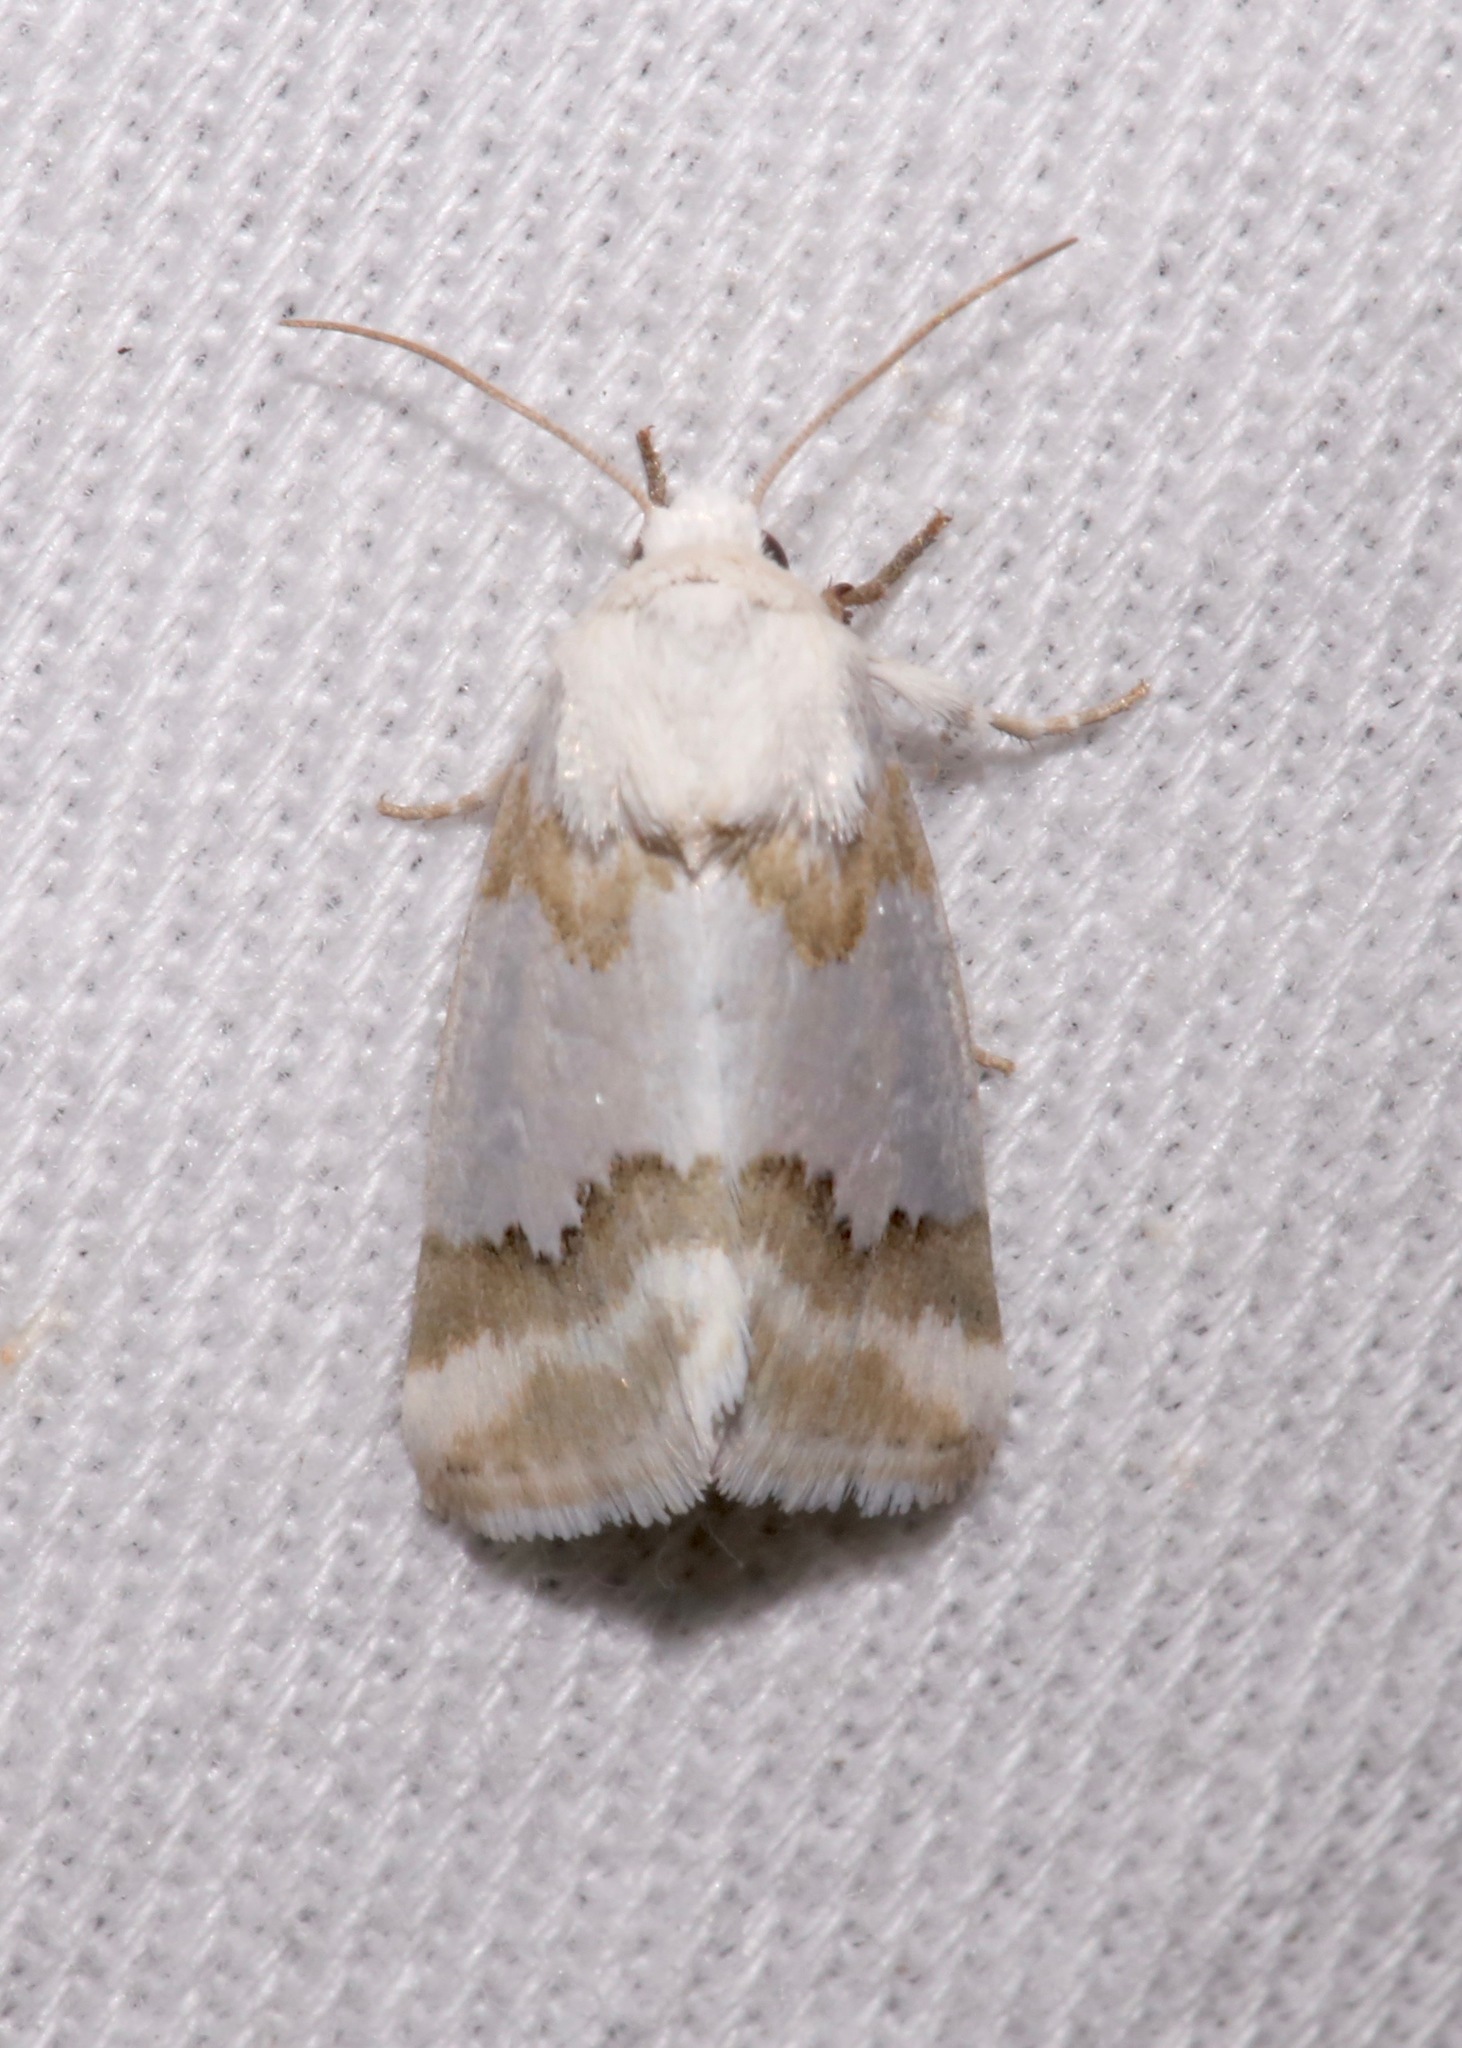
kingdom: Animalia
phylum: Arthropoda
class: Insecta
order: Lepidoptera
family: Noctuidae
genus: Schinia
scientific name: Schinia hulstia
